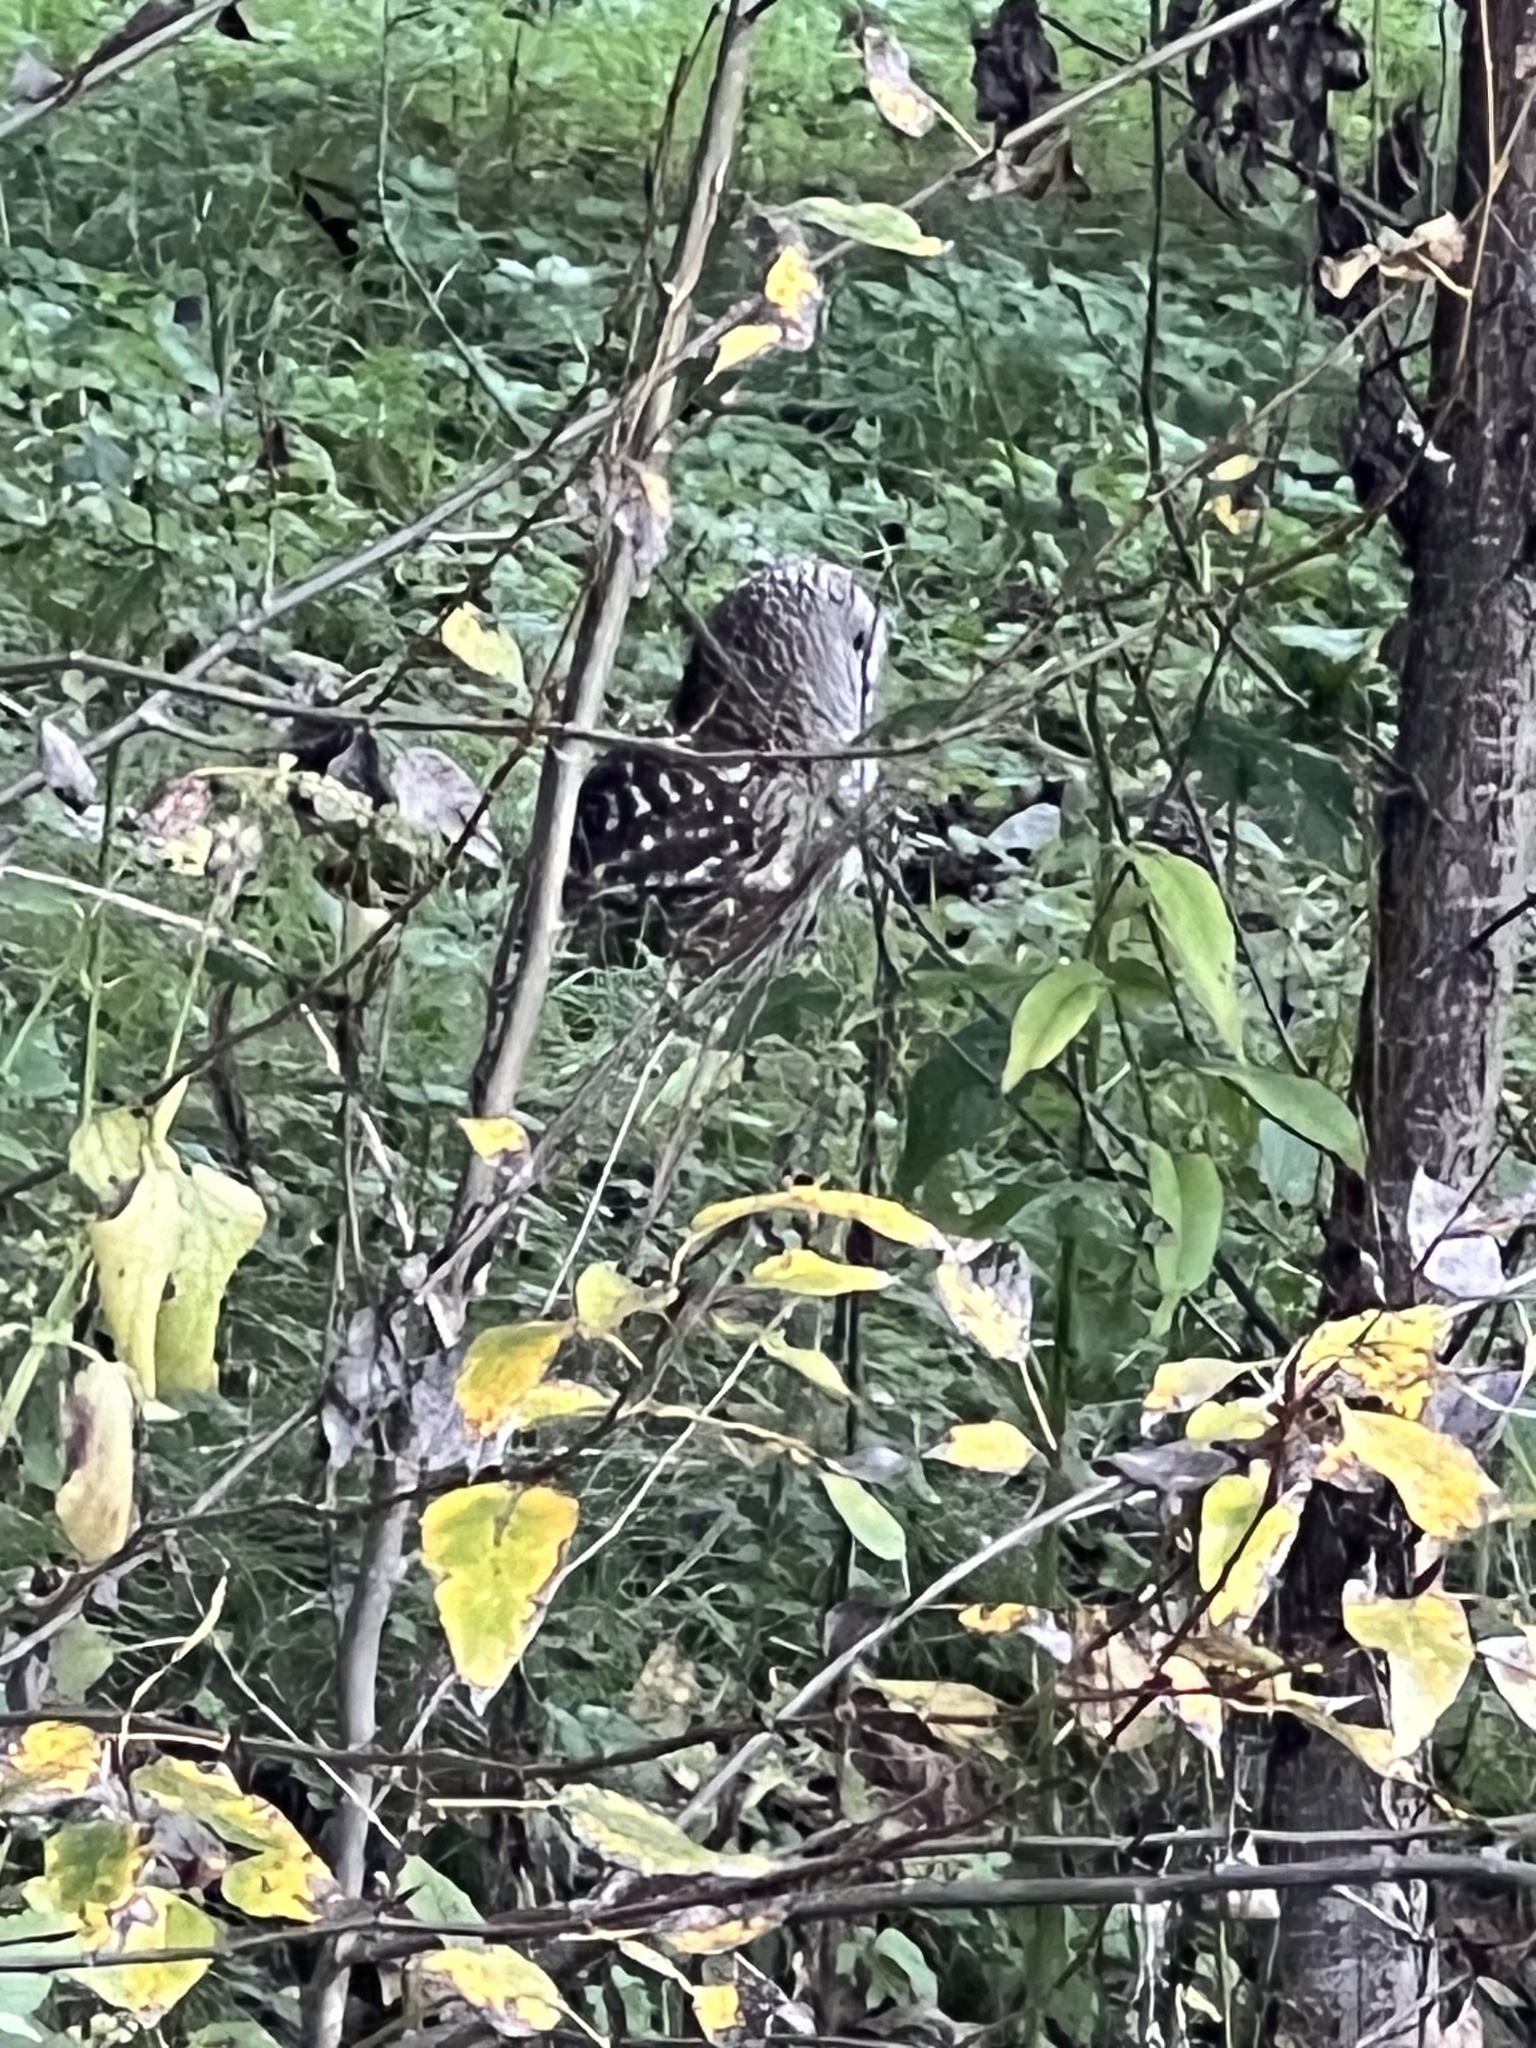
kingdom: Animalia
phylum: Chordata
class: Aves
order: Strigiformes
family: Strigidae
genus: Strix
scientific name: Strix varia
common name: Barred owl
